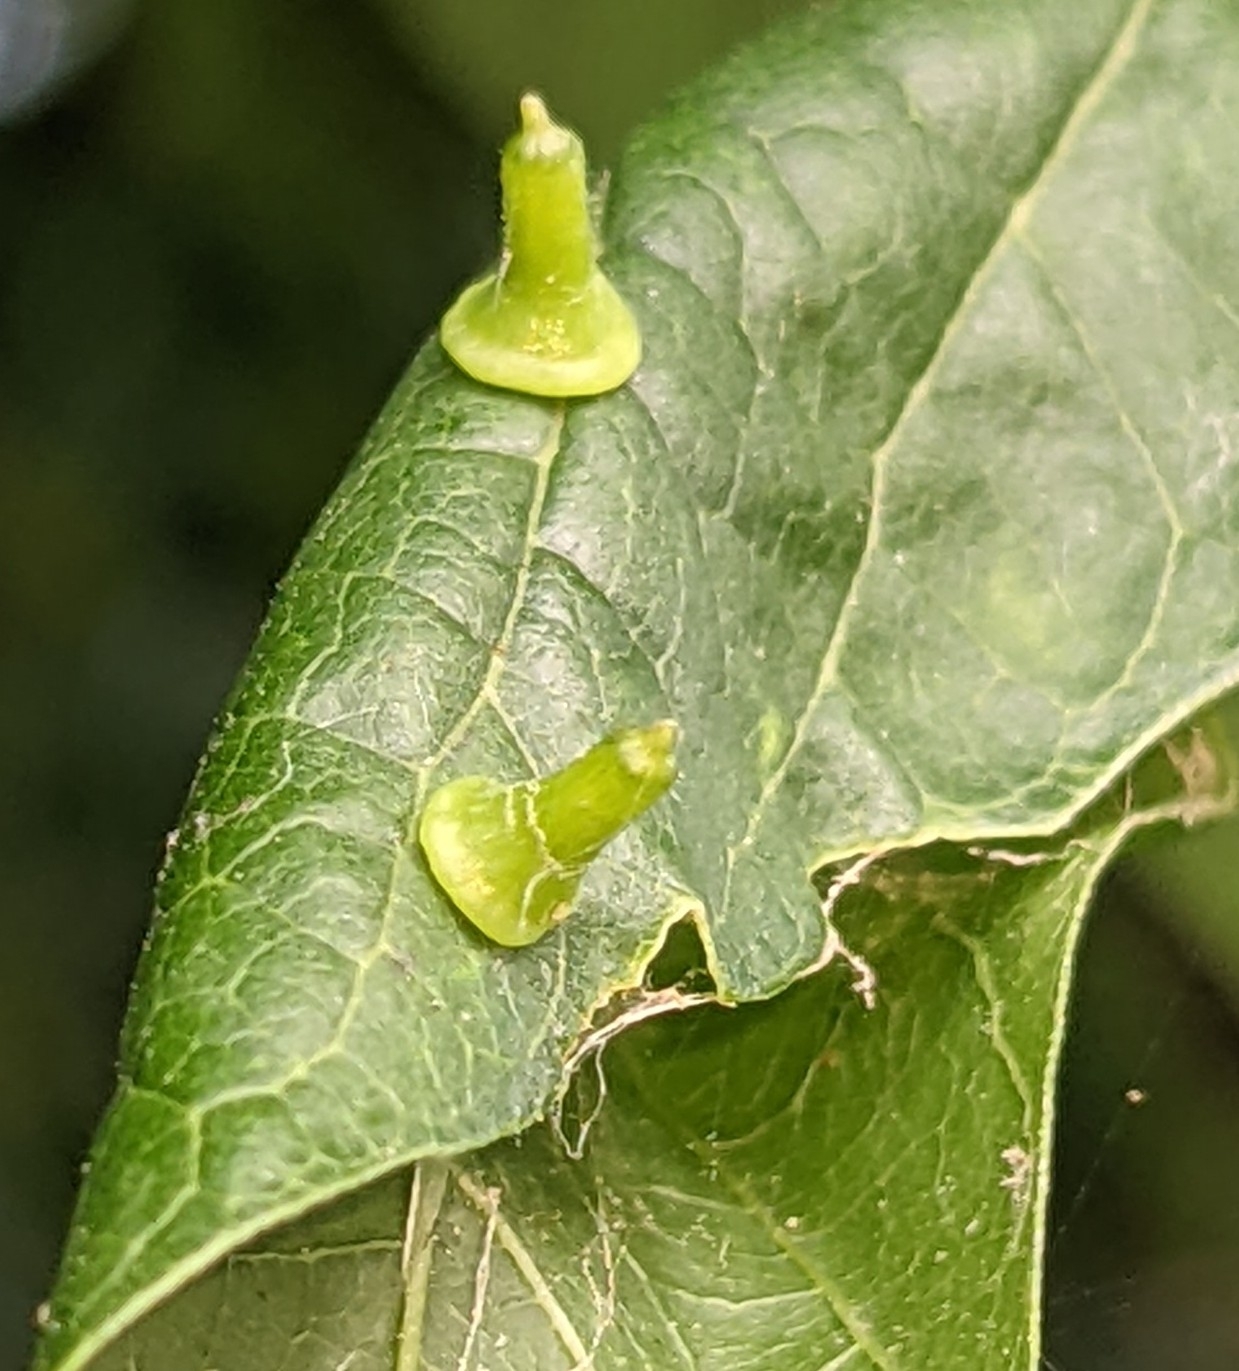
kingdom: Animalia
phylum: Arthropoda
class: Insecta
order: Diptera
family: Cecidomyiidae
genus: Celticecis
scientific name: Celticecis aciculata
